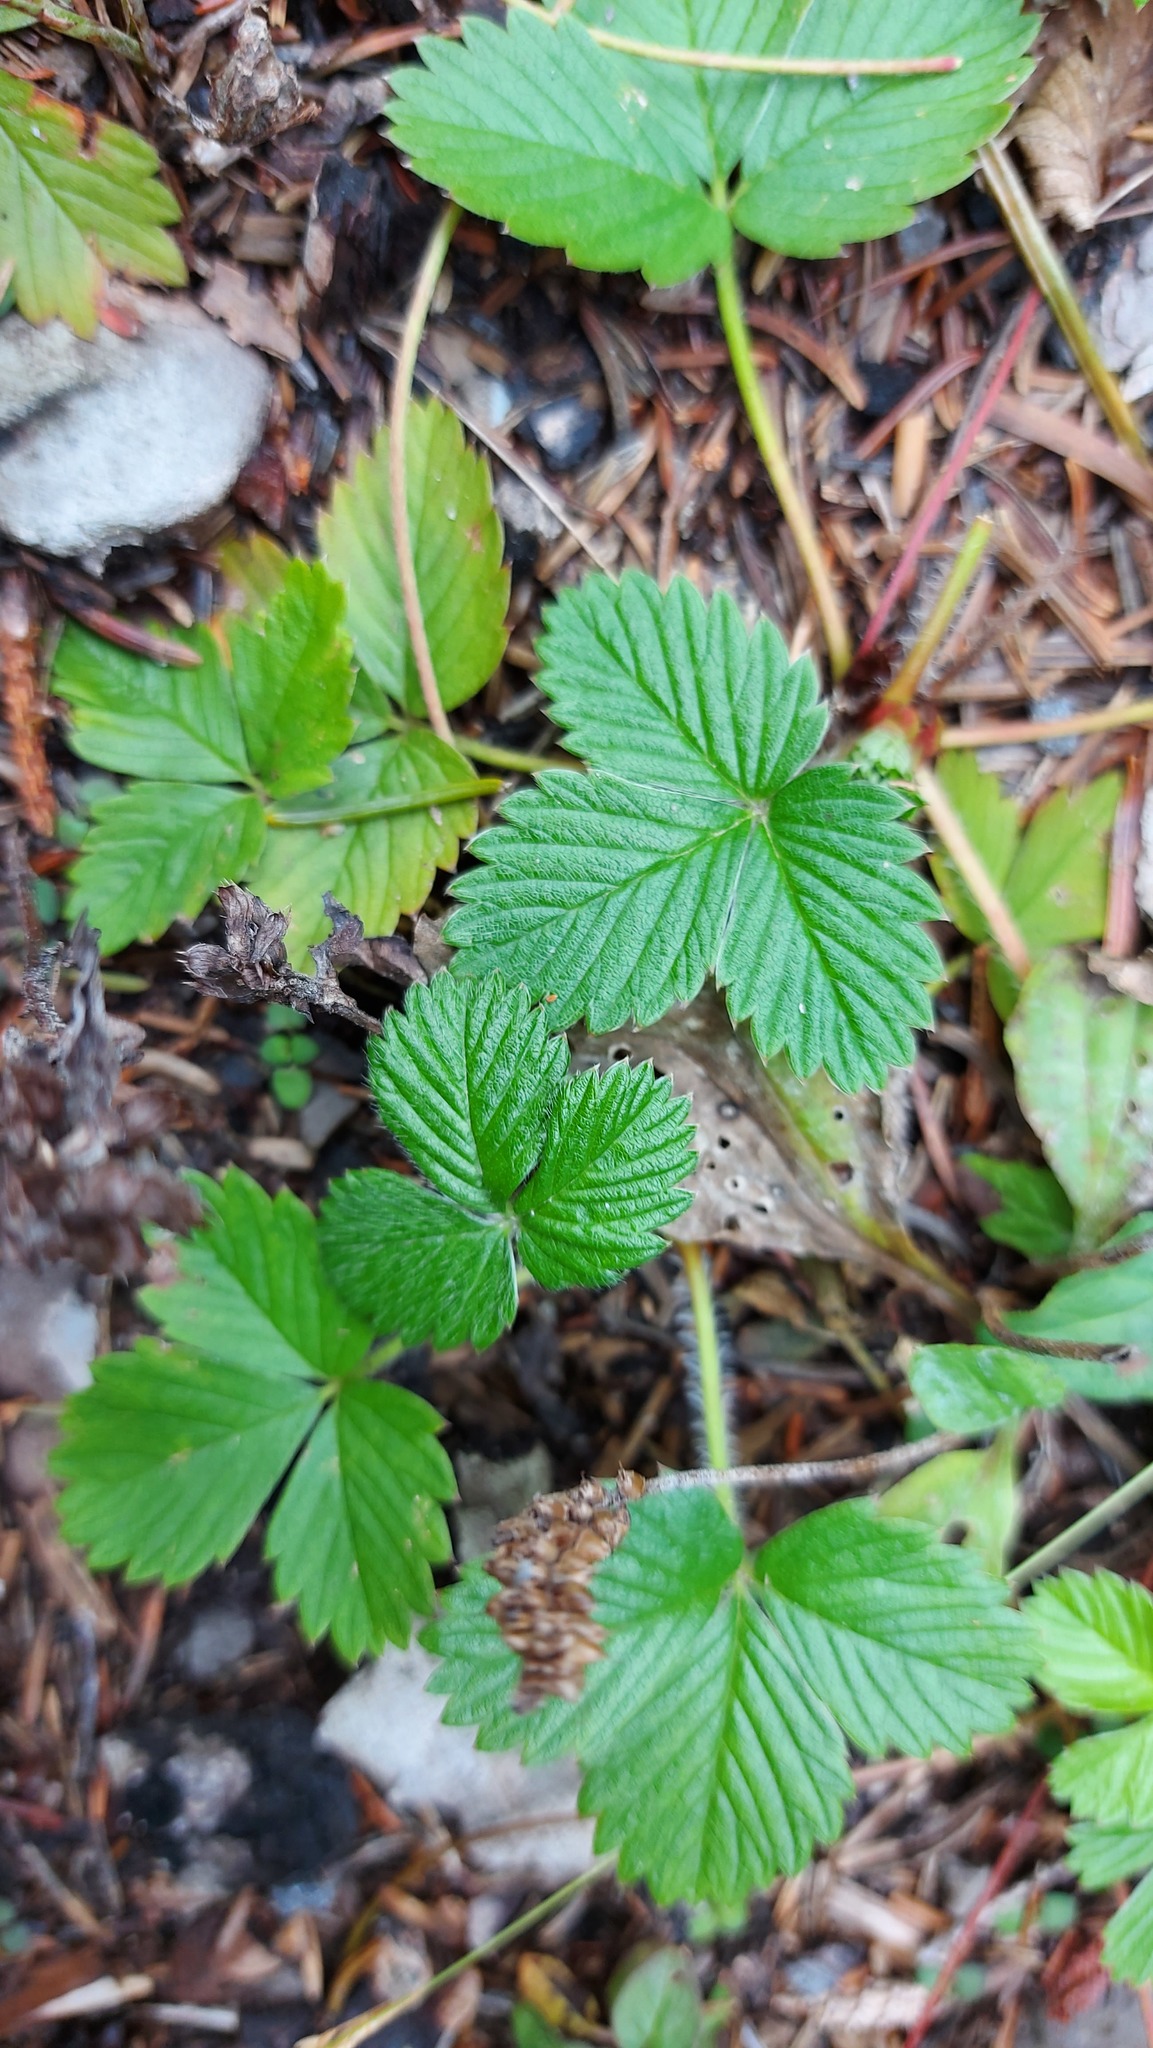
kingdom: Plantae
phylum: Tracheophyta
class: Magnoliopsida
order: Rosales
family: Rosaceae
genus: Fragaria
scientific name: Fragaria vesca
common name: Wild strawberry
